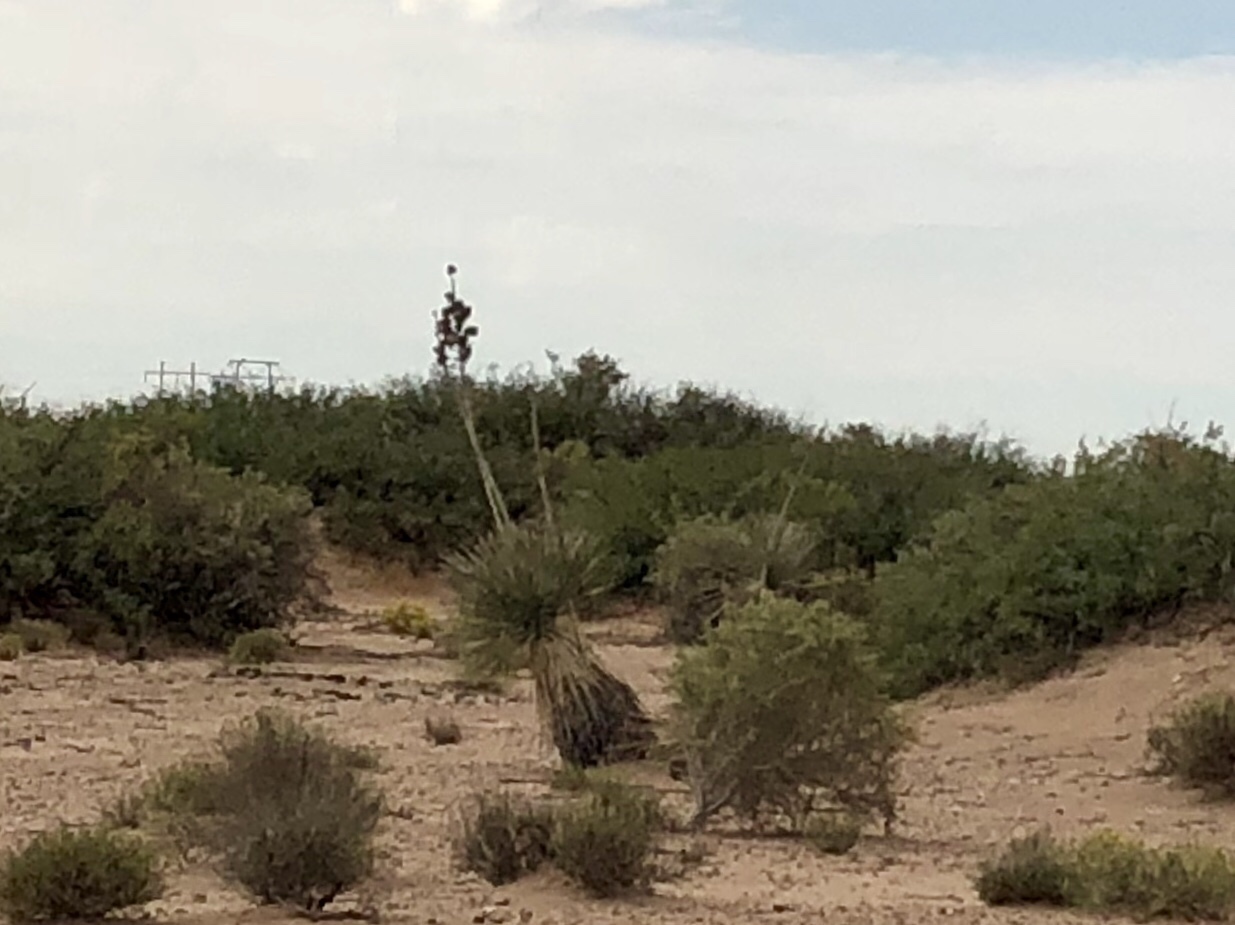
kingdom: Plantae
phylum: Tracheophyta
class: Liliopsida
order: Asparagales
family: Asparagaceae
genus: Yucca
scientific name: Yucca elata
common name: Palmella
